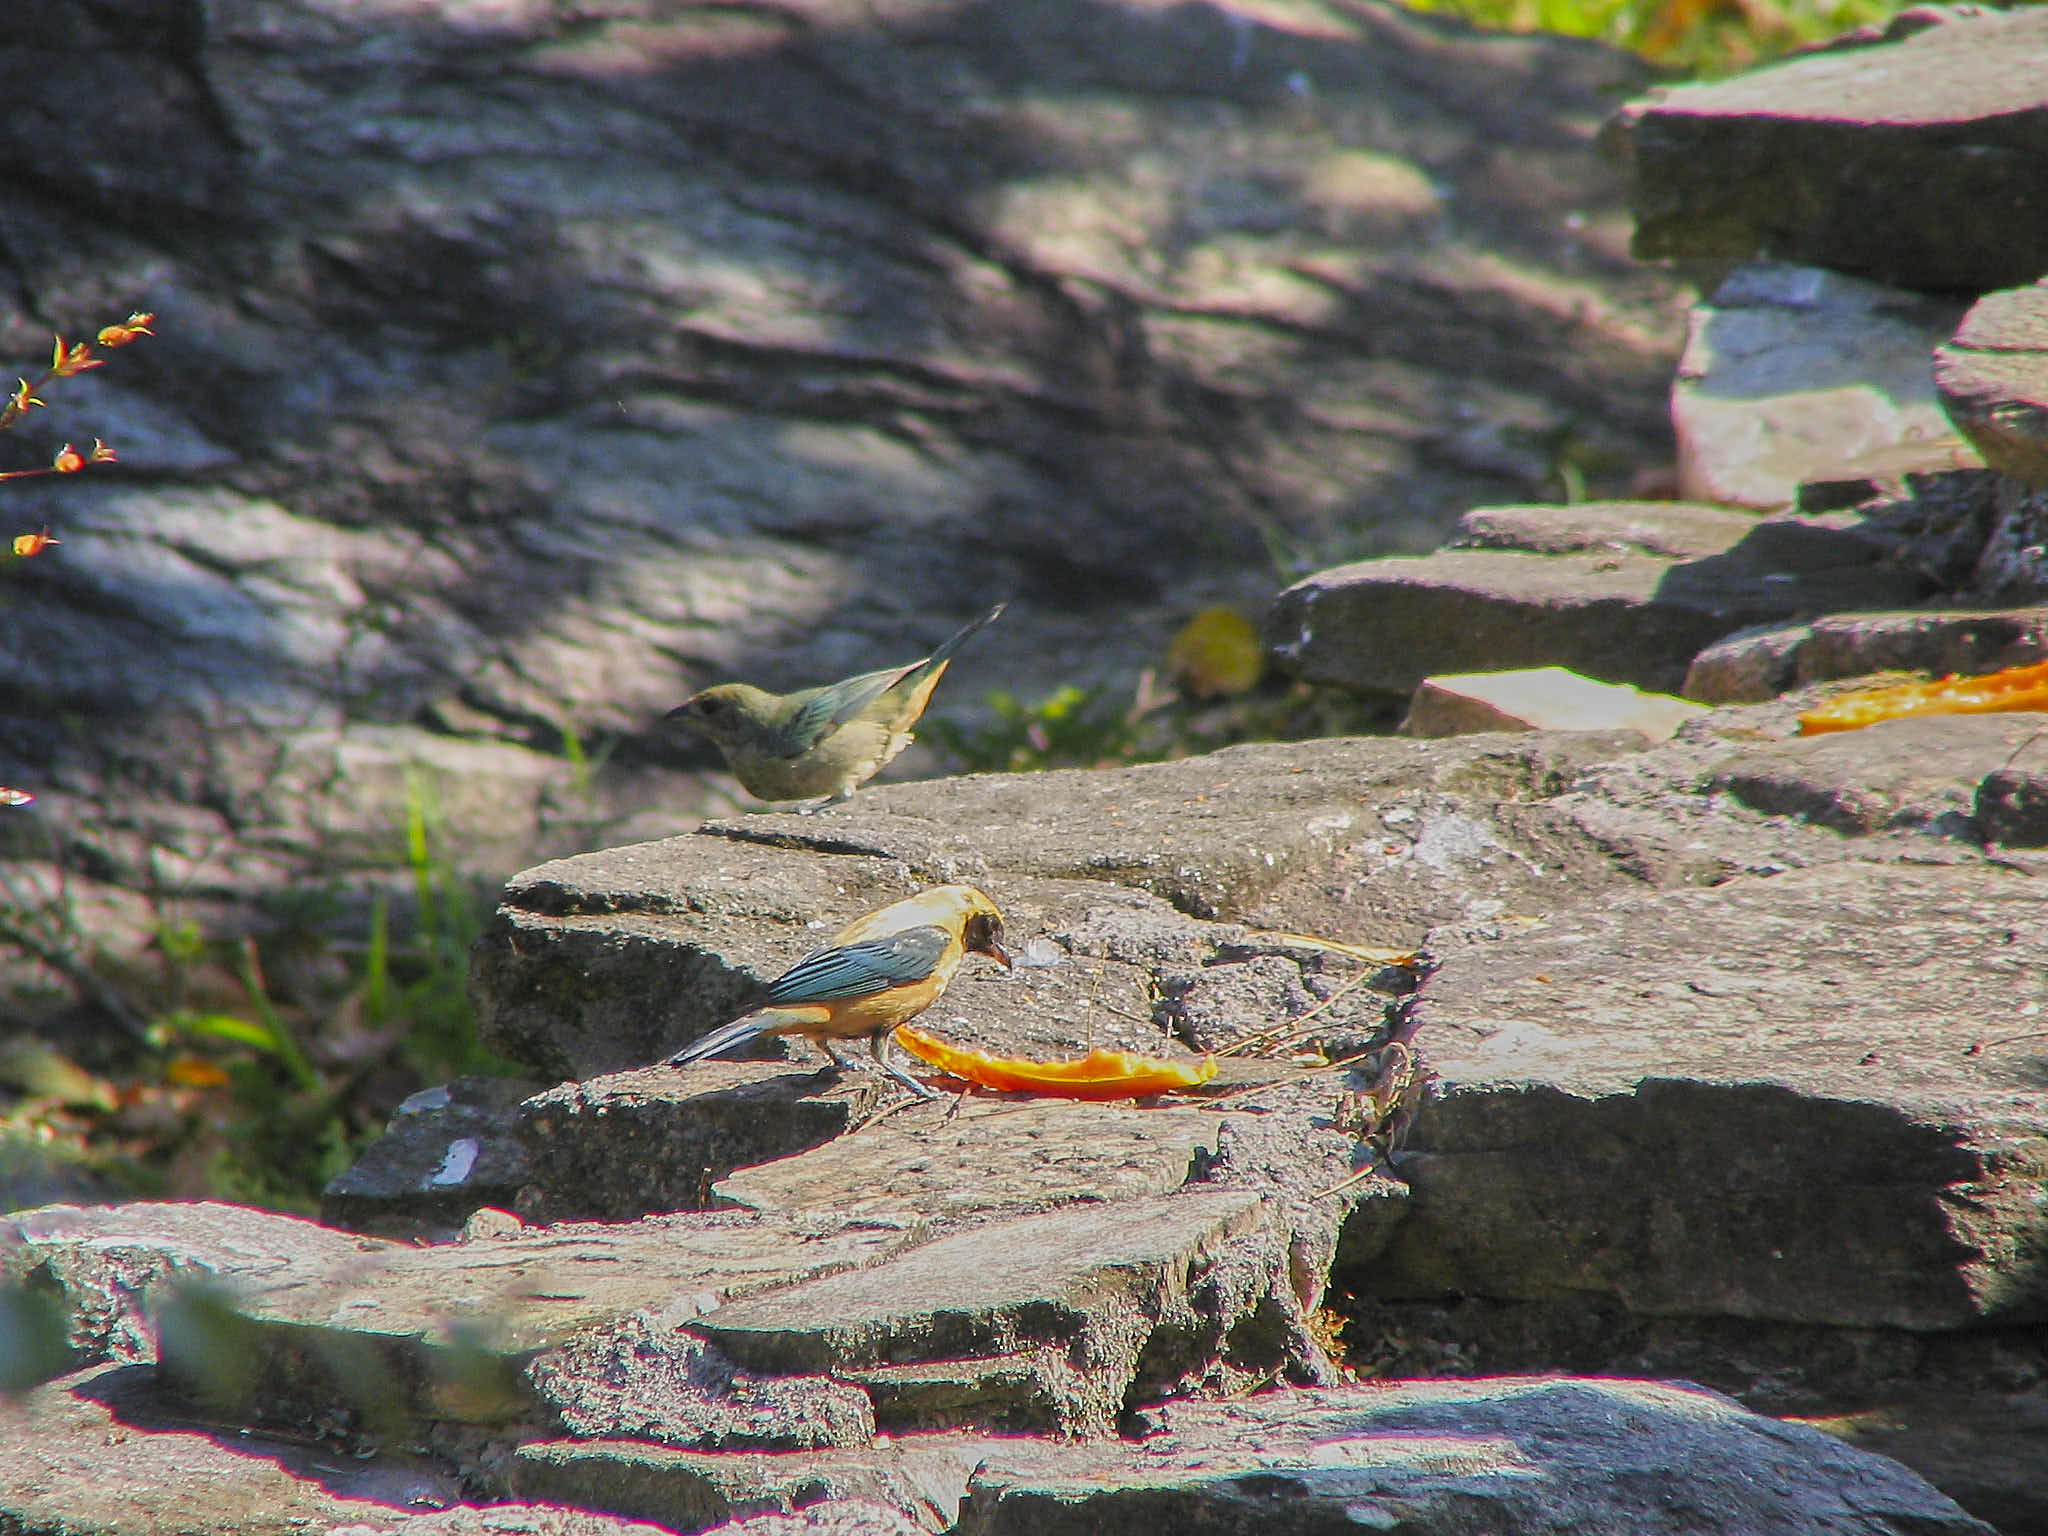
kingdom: Animalia
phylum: Chordata
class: Aves
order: Passeriformes
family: Thraupidae
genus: Stilpnia
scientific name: Stilpnia cayana
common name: Burnished-buff tanager
